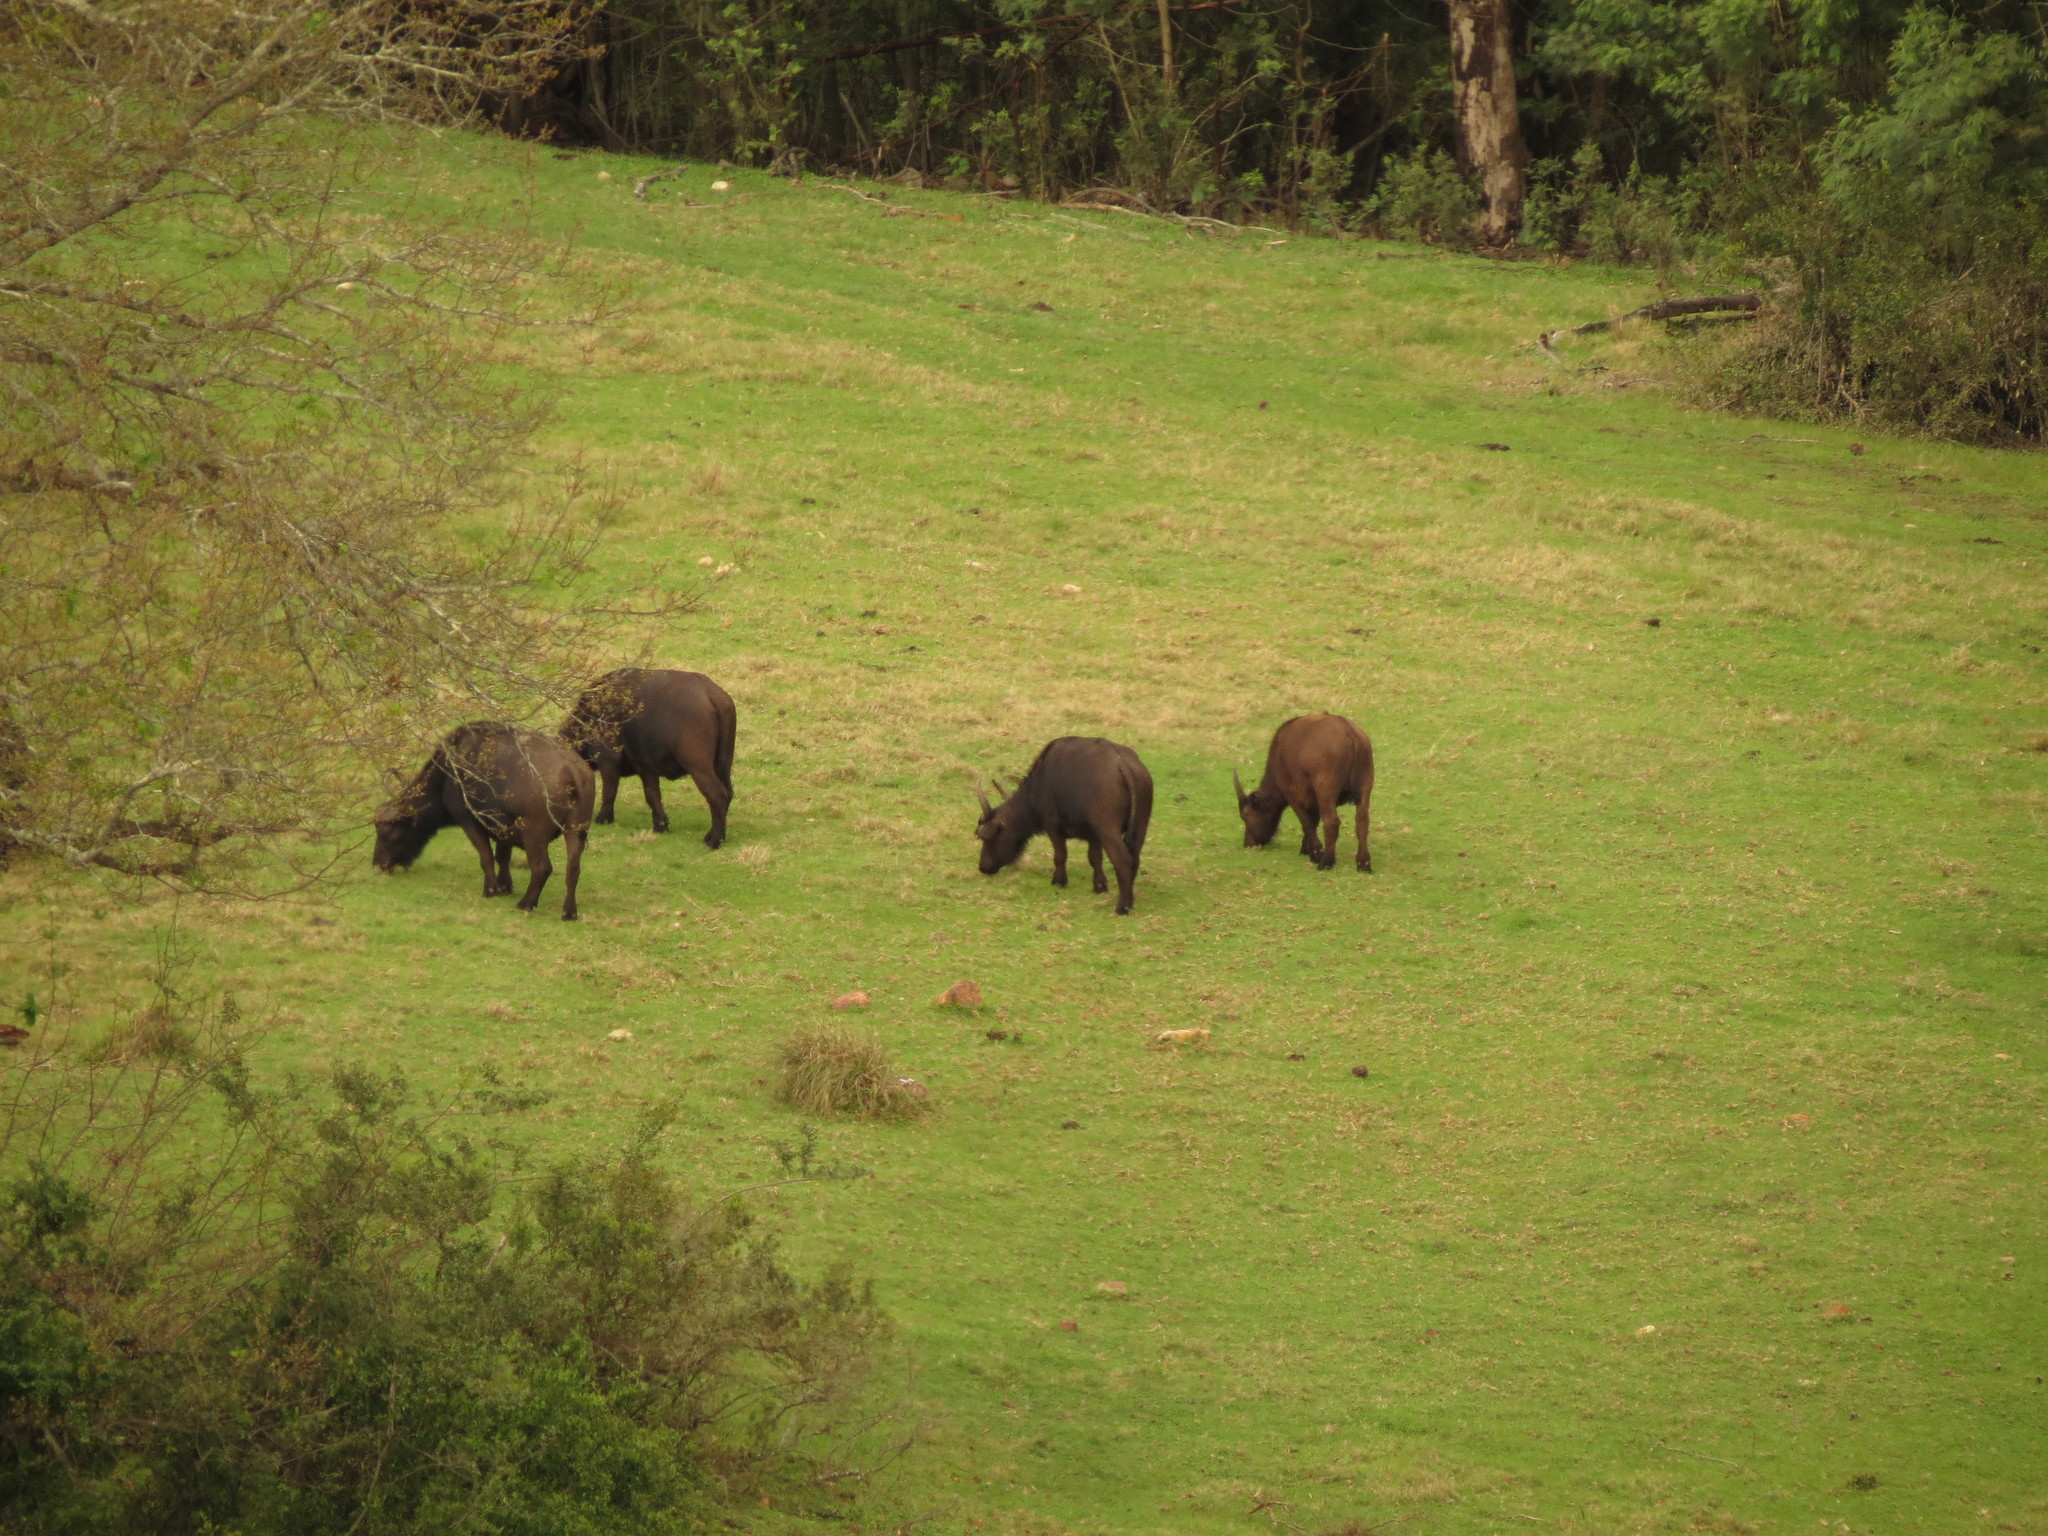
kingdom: Animalia
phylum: Chordata
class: Mammalia
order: Artiodactyla
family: Bovidae
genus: Syncerus
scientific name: Syncerus caffer
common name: African buffalo
